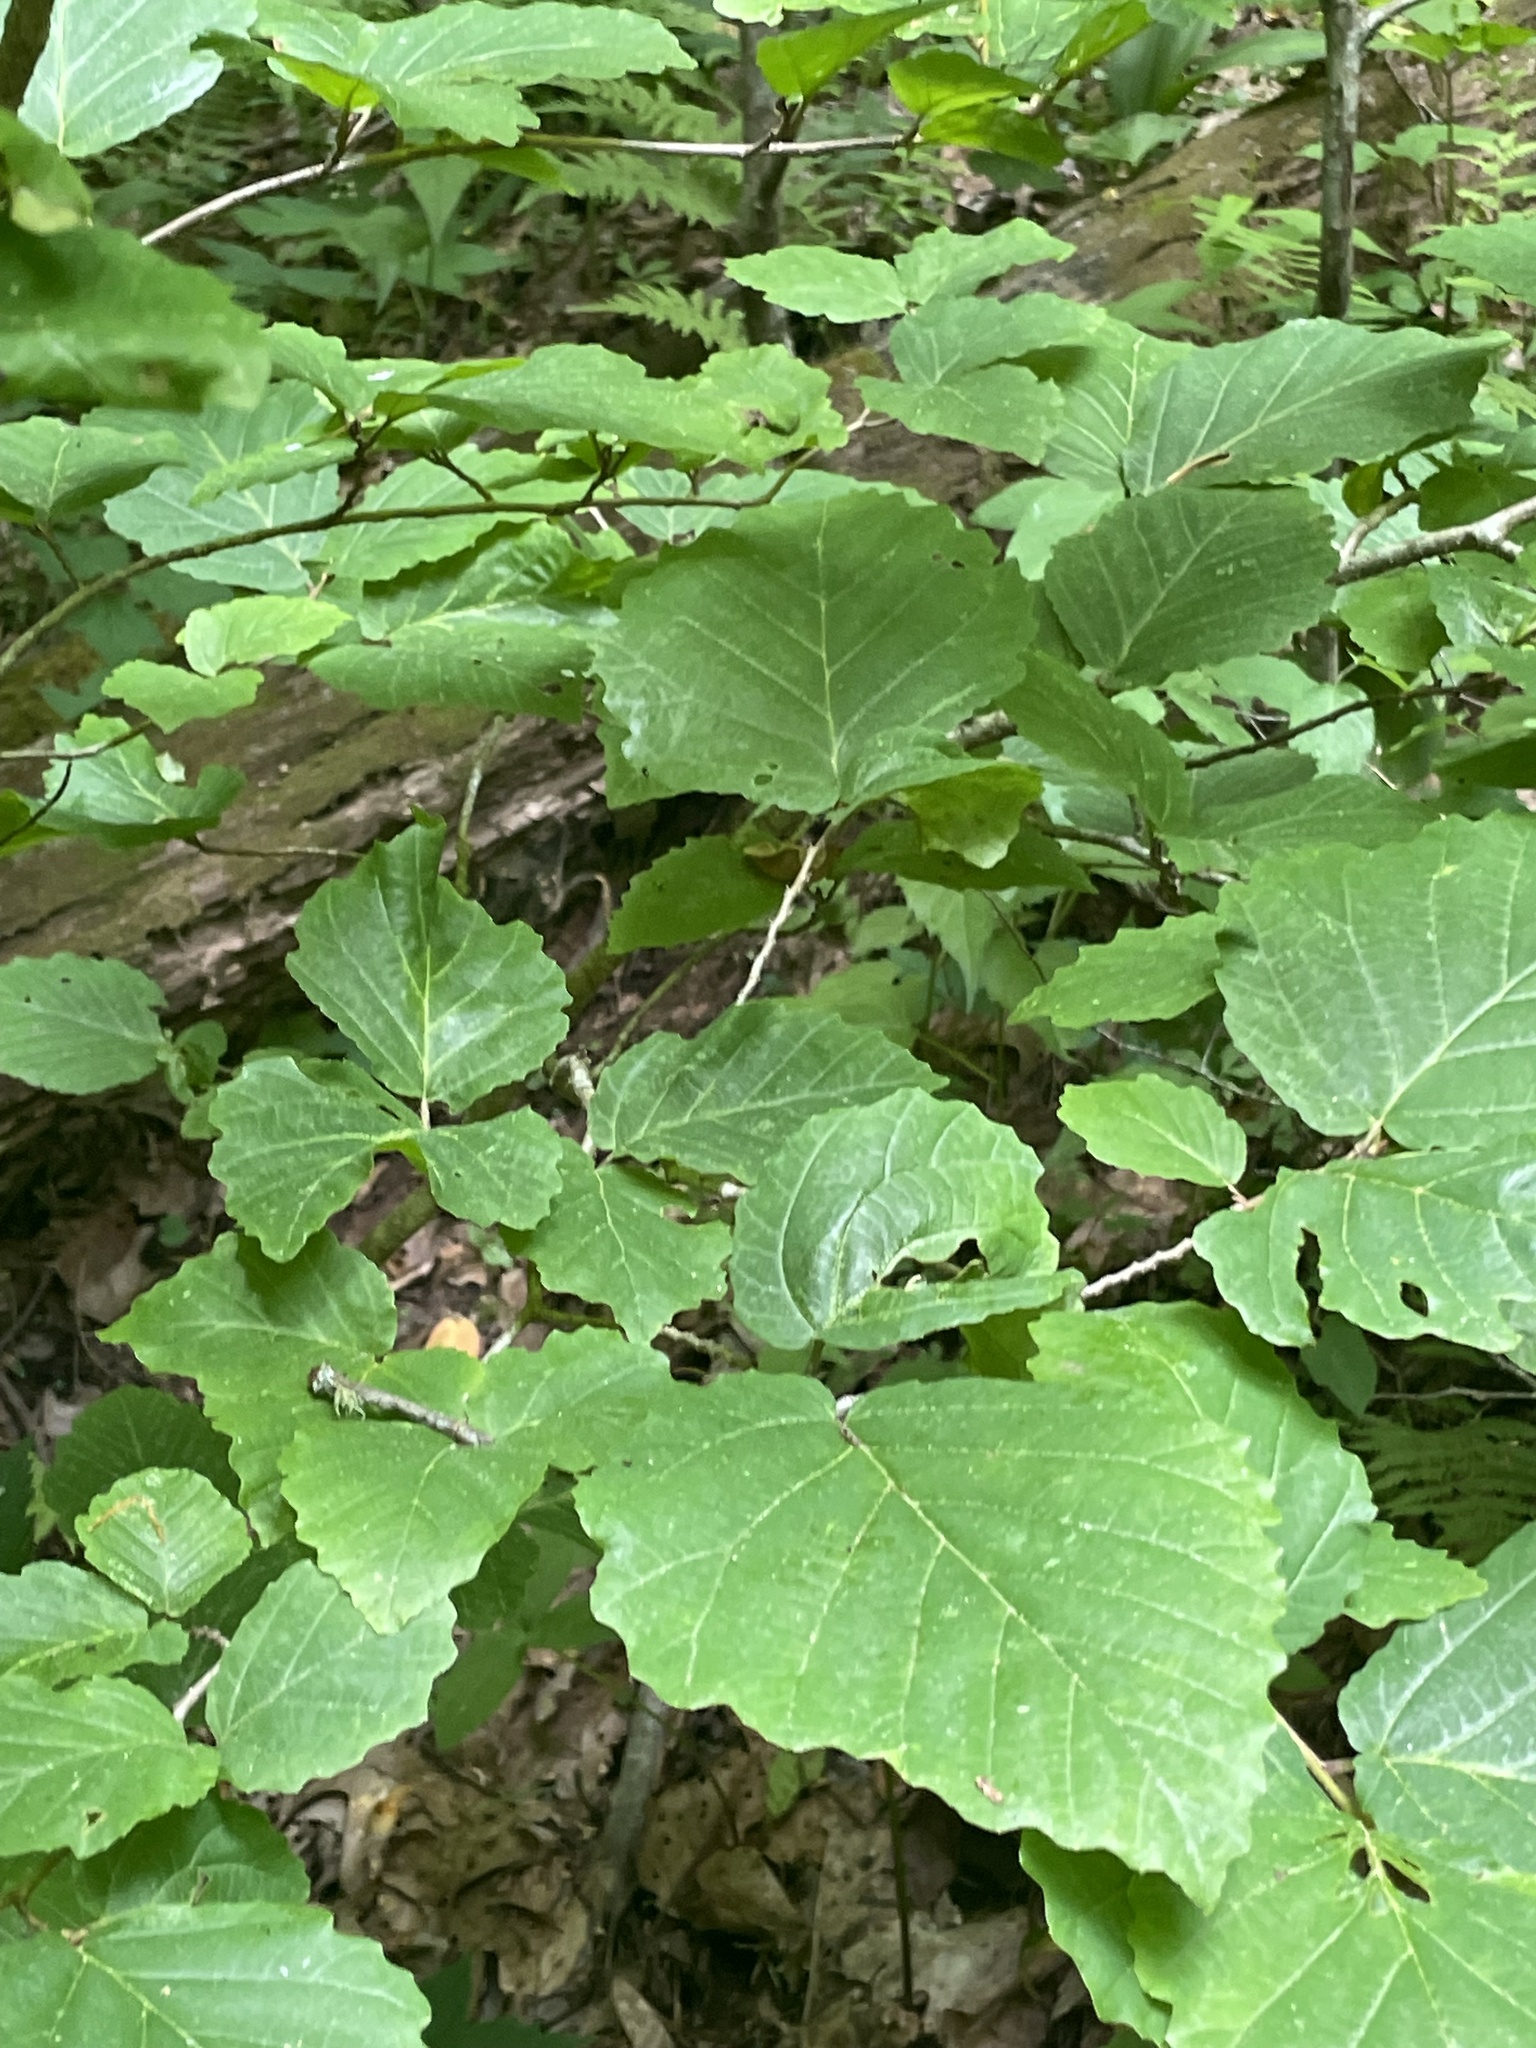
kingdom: Plantae
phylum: Tracheophyta
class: Magnoliopsida
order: Saxifragales
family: Hamamelidaceae
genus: Hamamelis
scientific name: Hamamelis virginiana
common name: Witch-hazel
